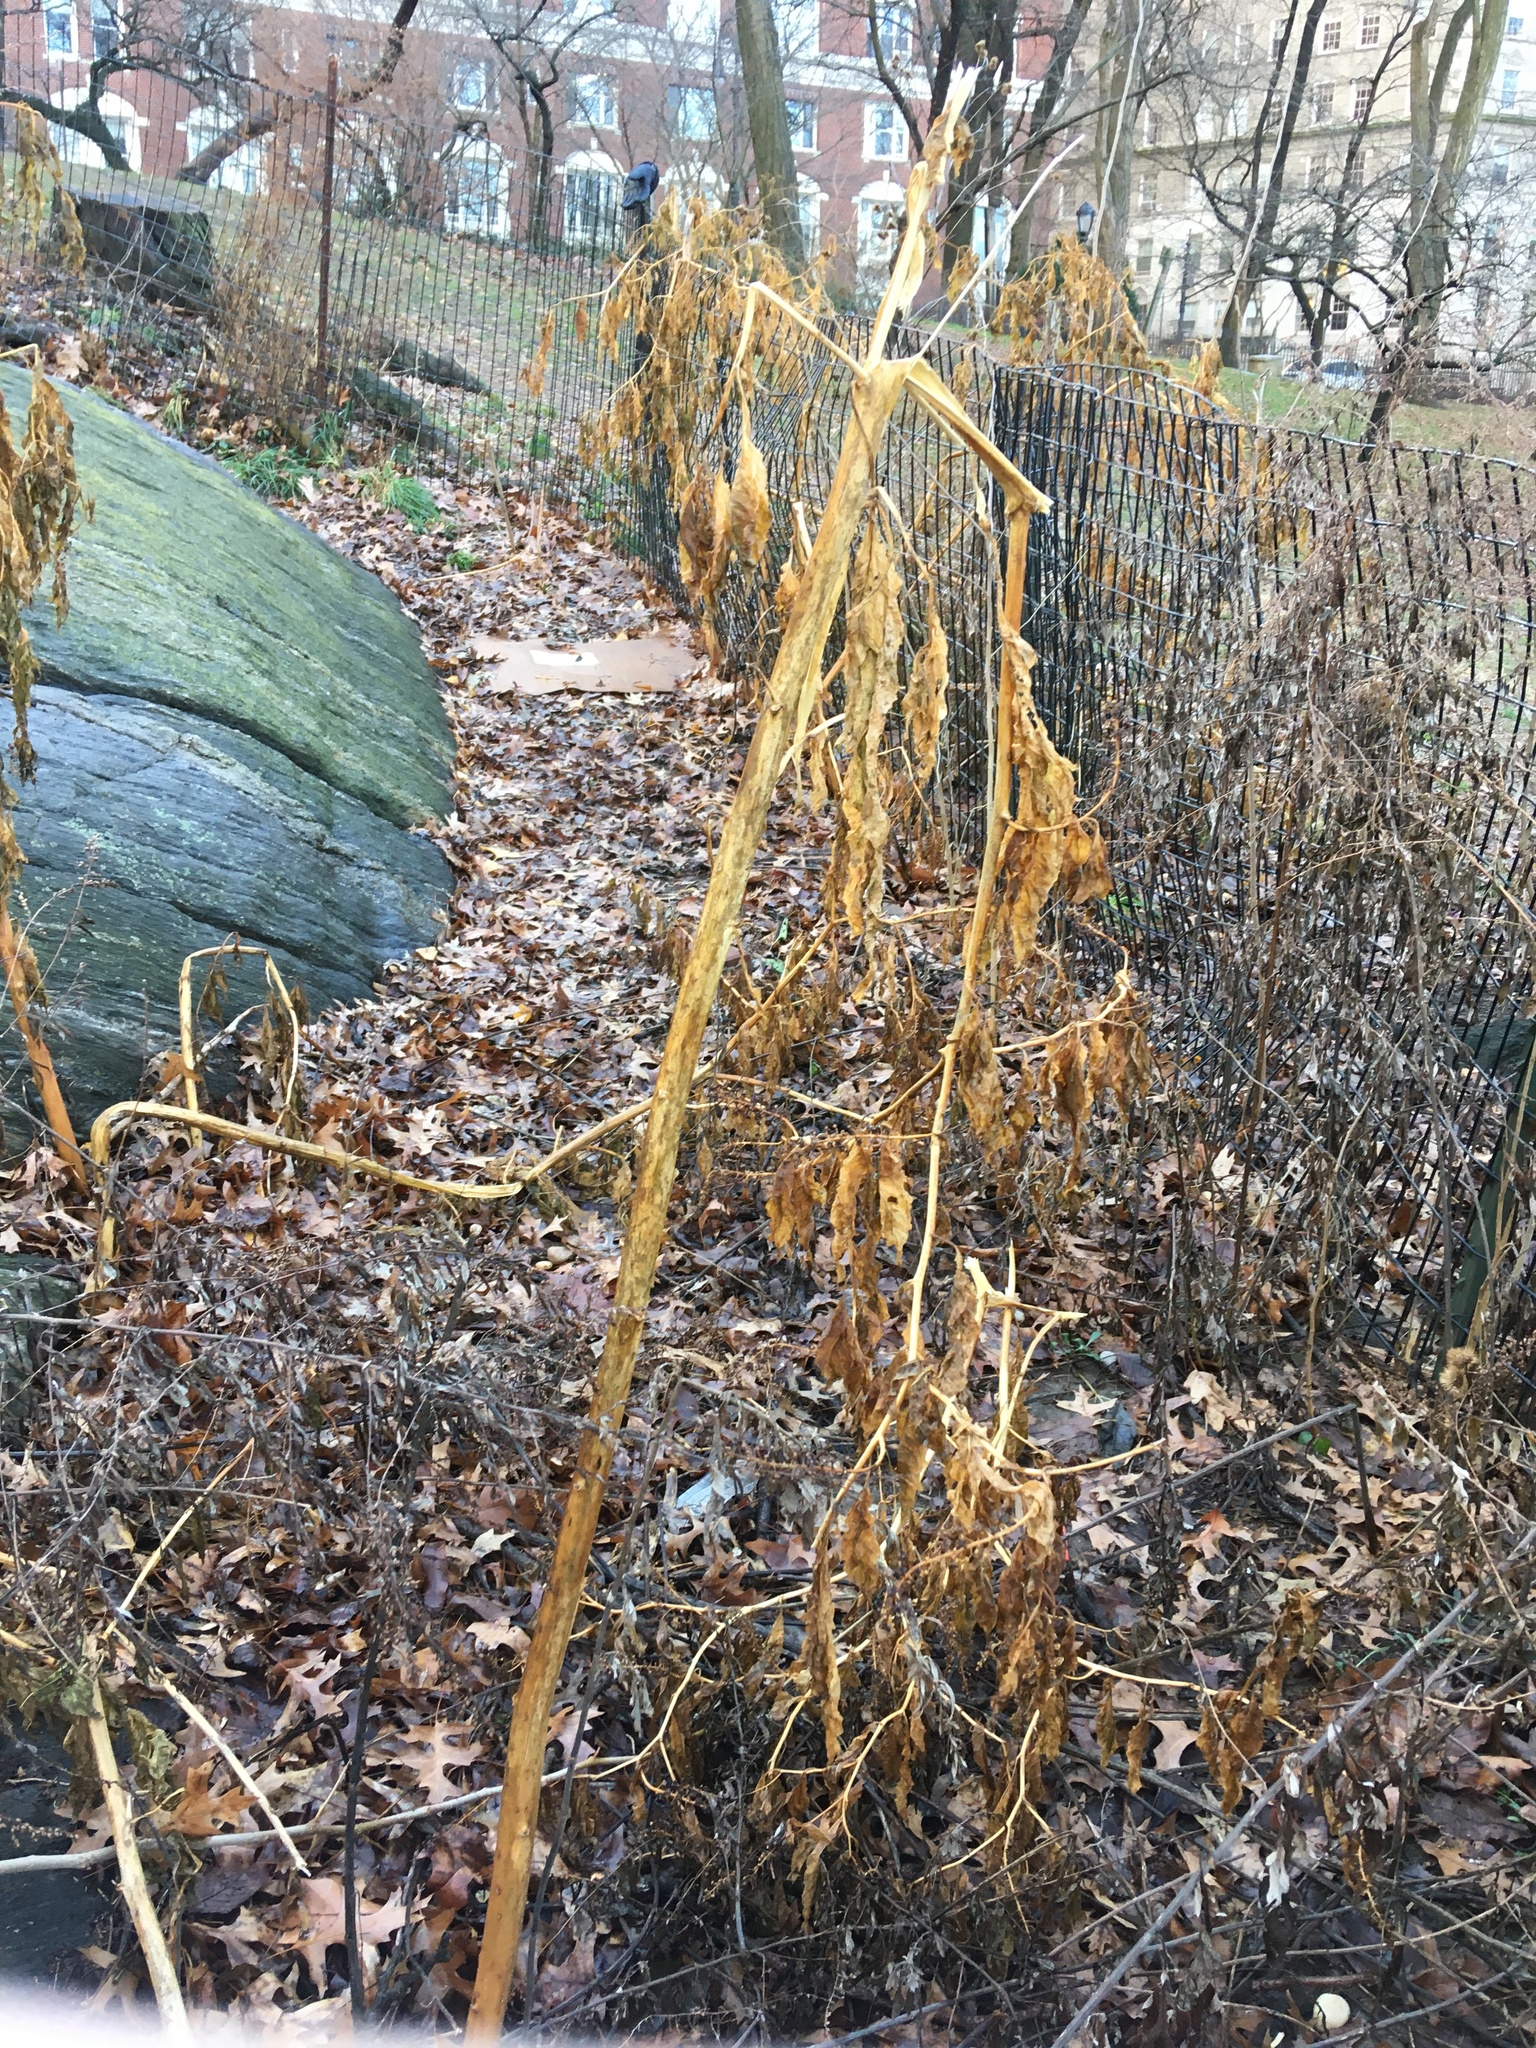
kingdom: Plantae
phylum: Tracheophyta
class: Magnoliopsida
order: Caryophyllales
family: Phytolaccaceae
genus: Phytolacca
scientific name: Phytolacca americana
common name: American pokeweed
